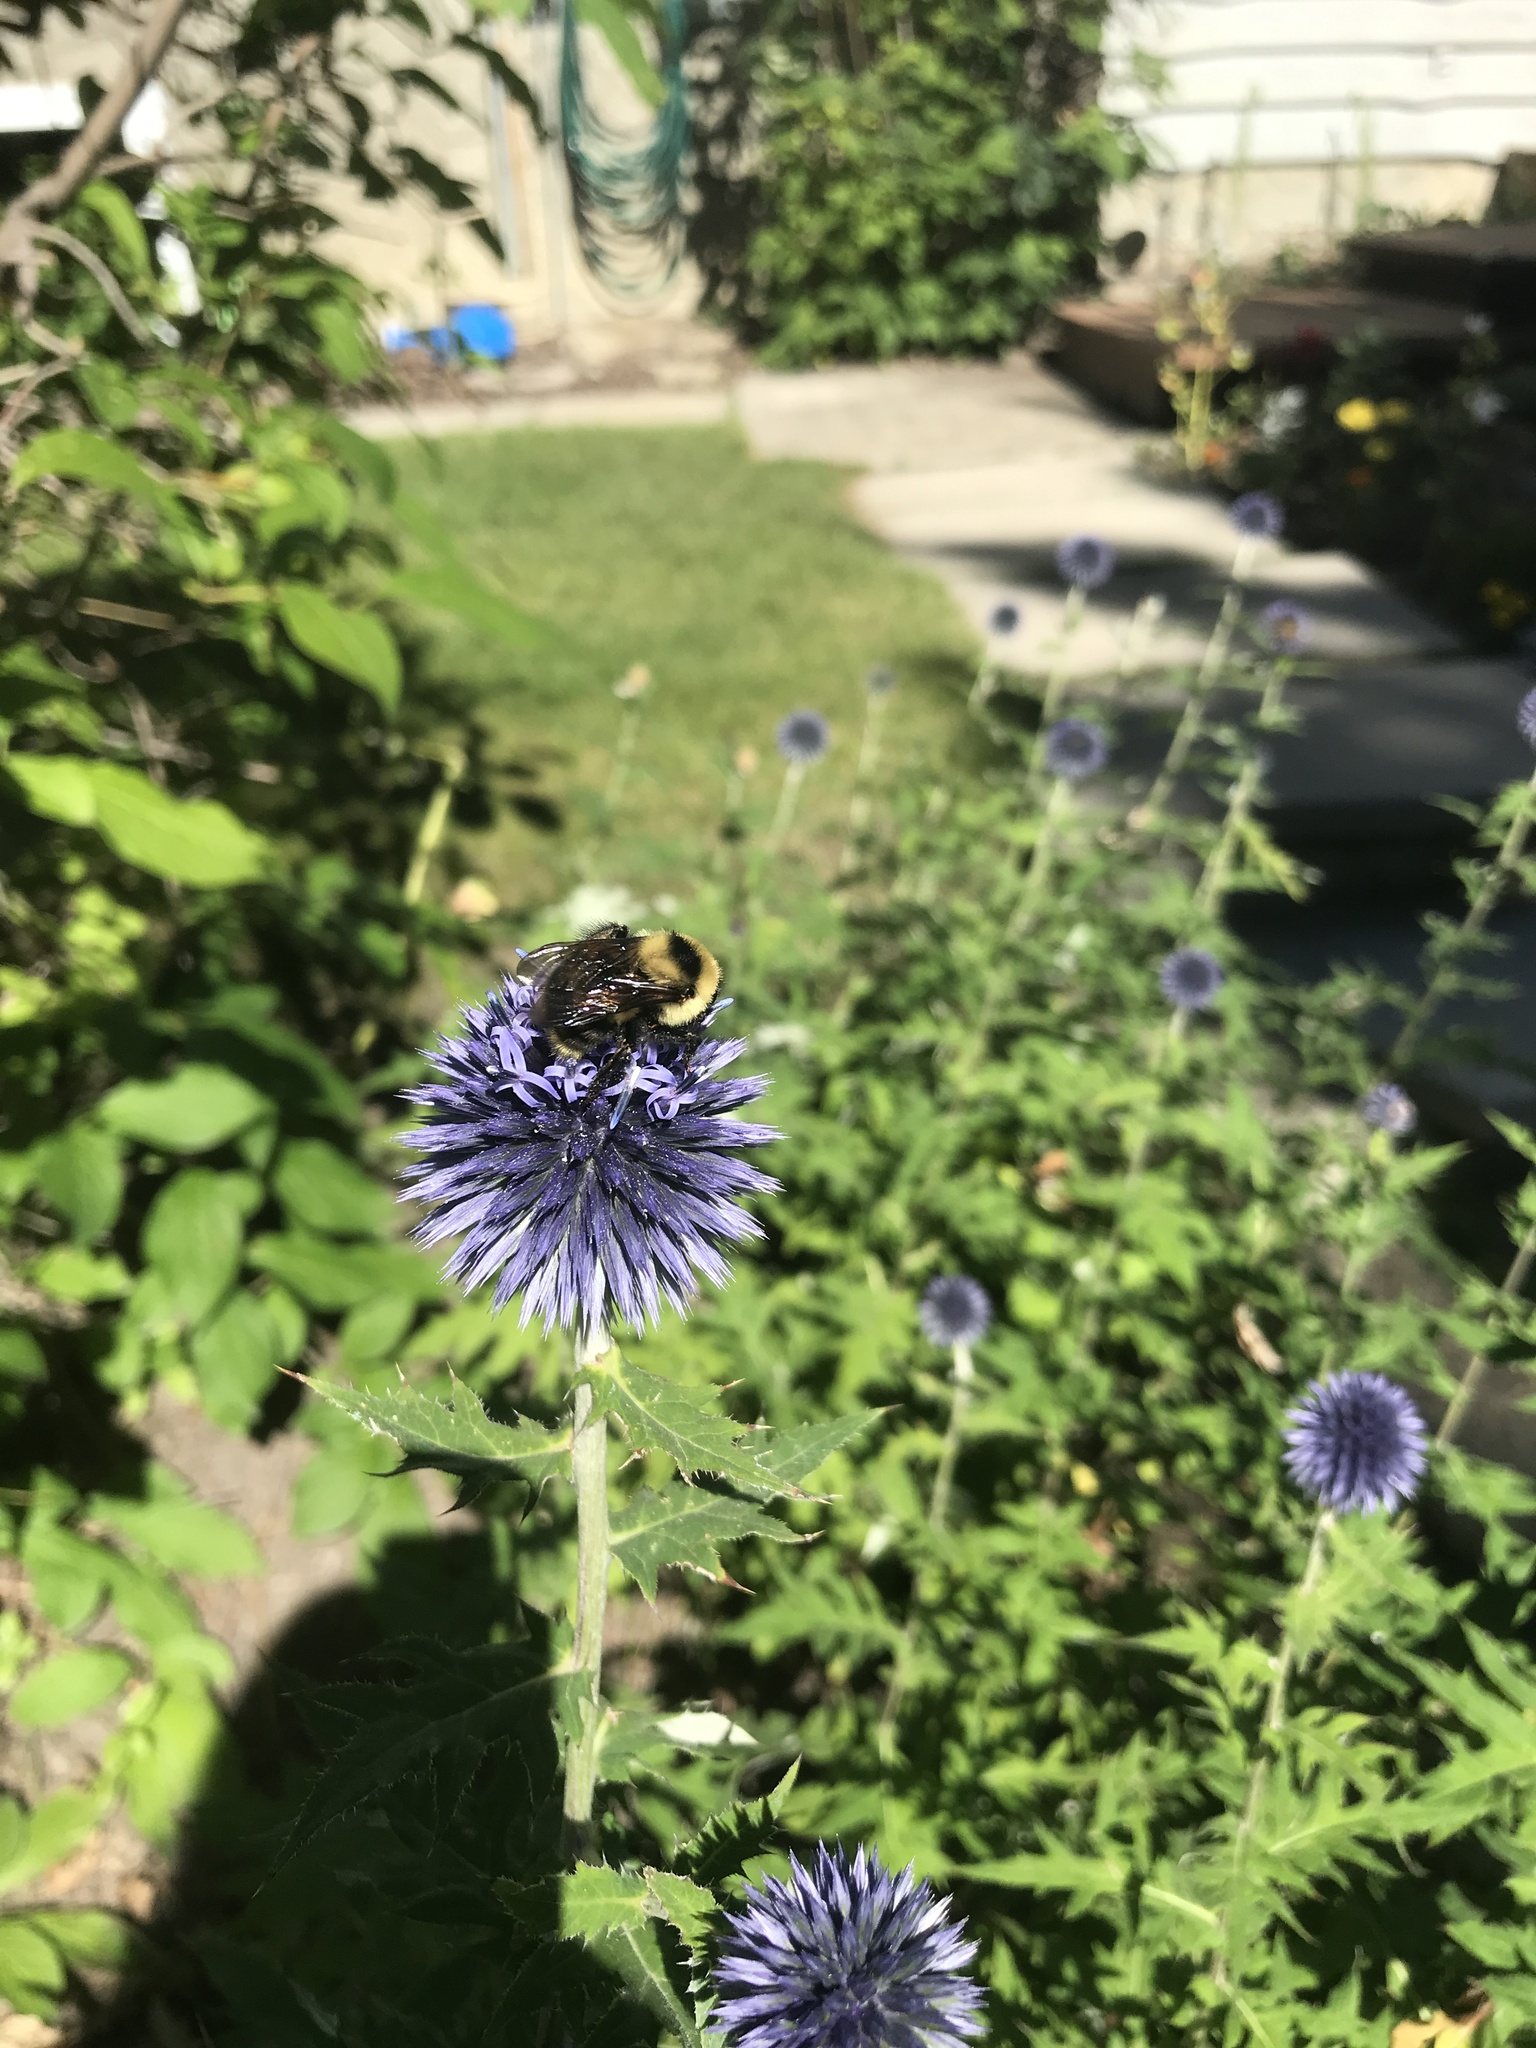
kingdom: Animalia
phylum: Arthropoda
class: Insecta
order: Hymenoptera
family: Apidae
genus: Bombus
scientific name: Bombus rufocinctus
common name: Red-belted bumble bee
